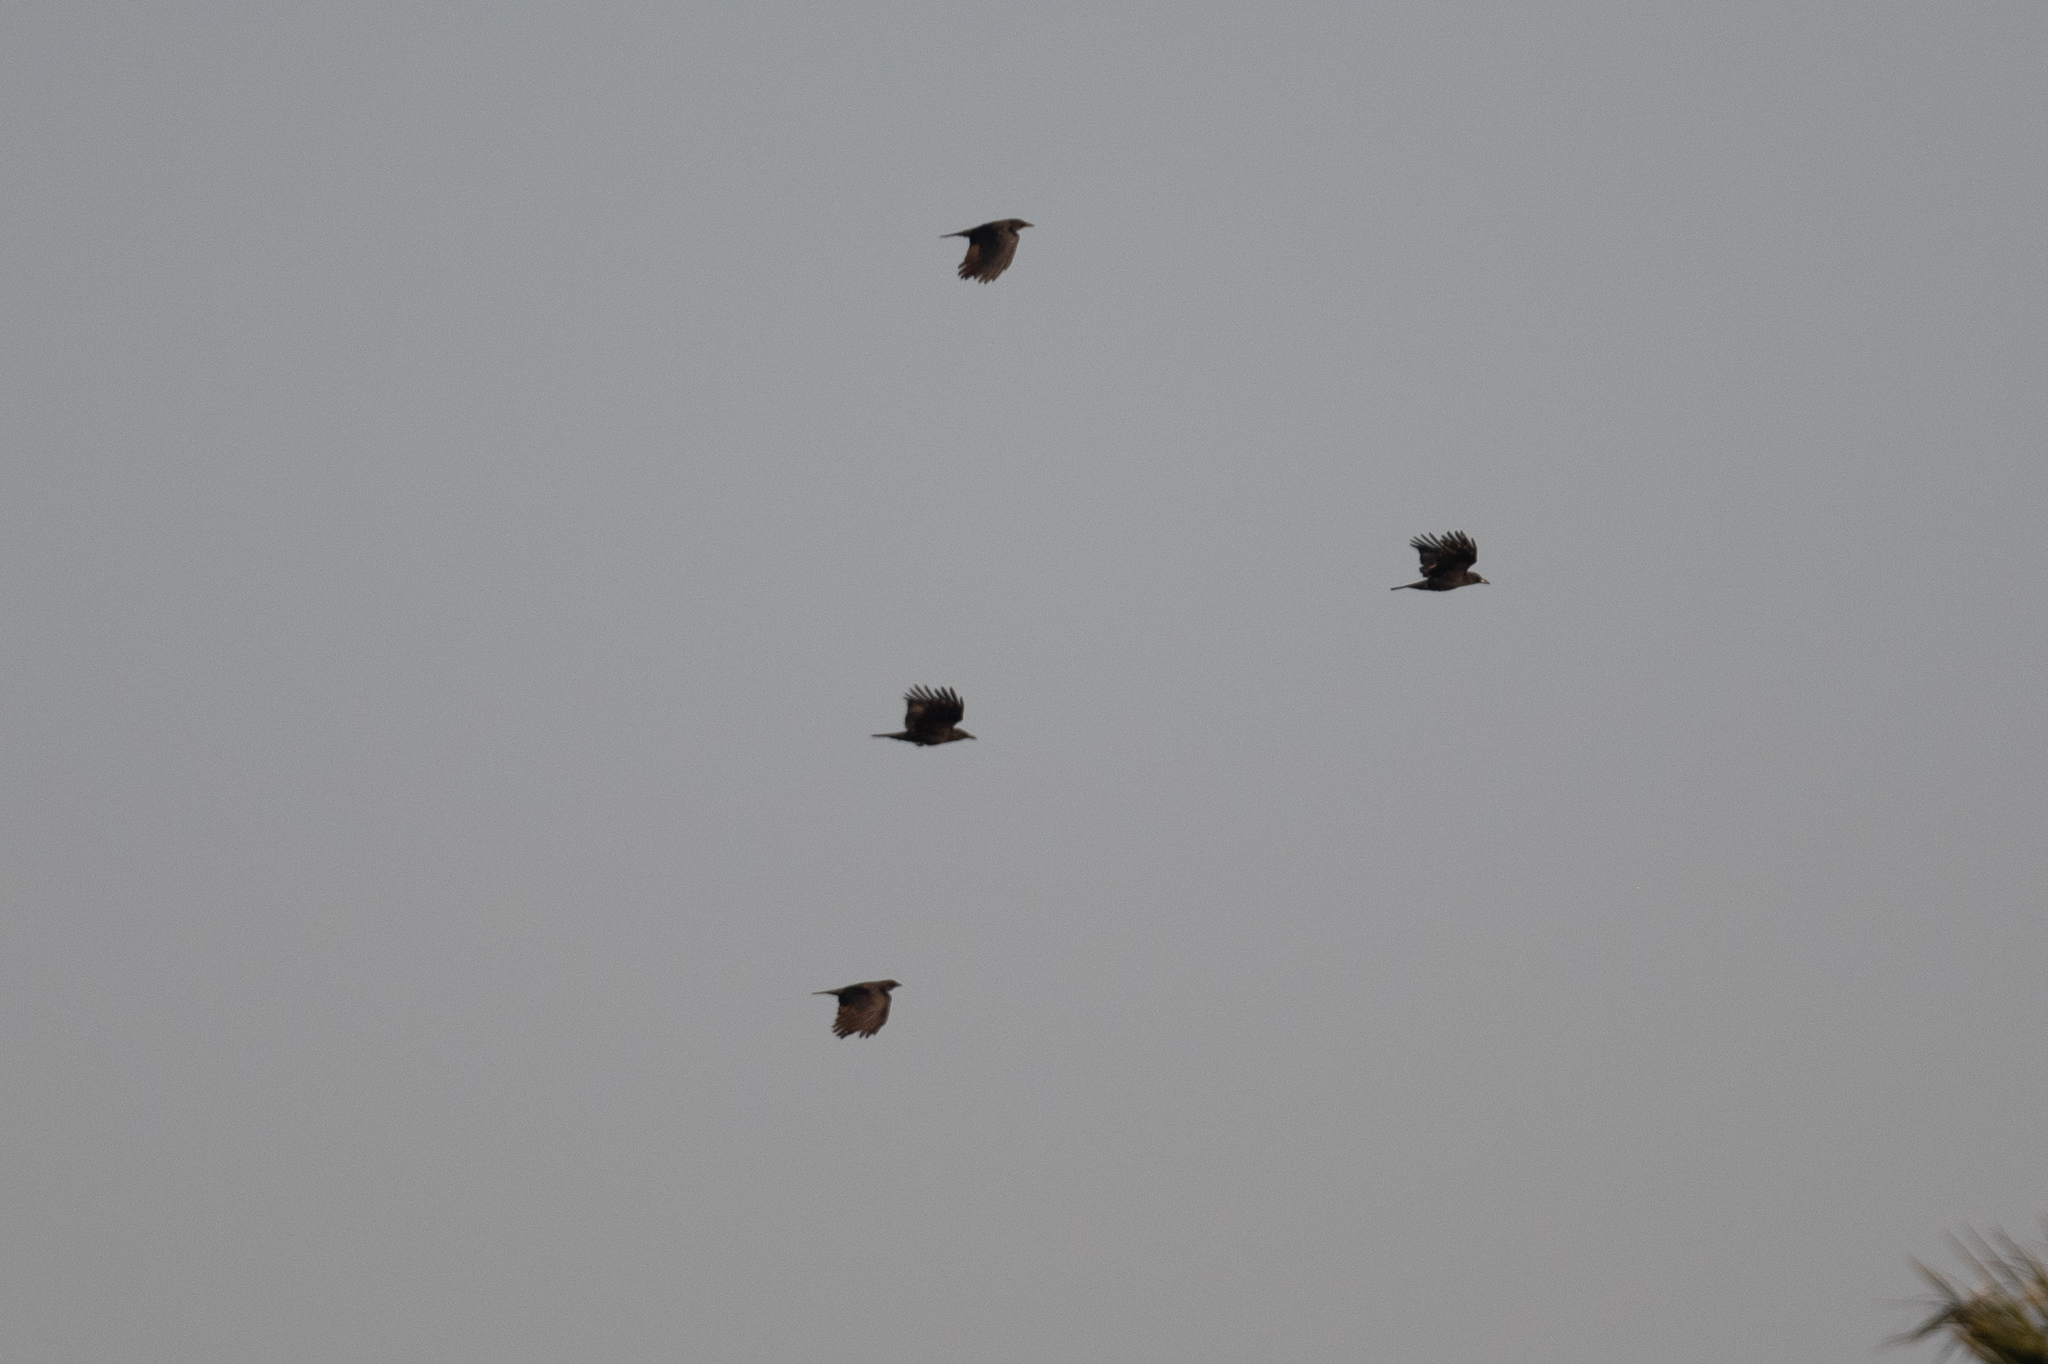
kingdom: Animalia
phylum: Chordata
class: Aves
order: Passeriformes
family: Corvidae
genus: Corvus
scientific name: Corvus brachyrhynchos
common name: American crow
